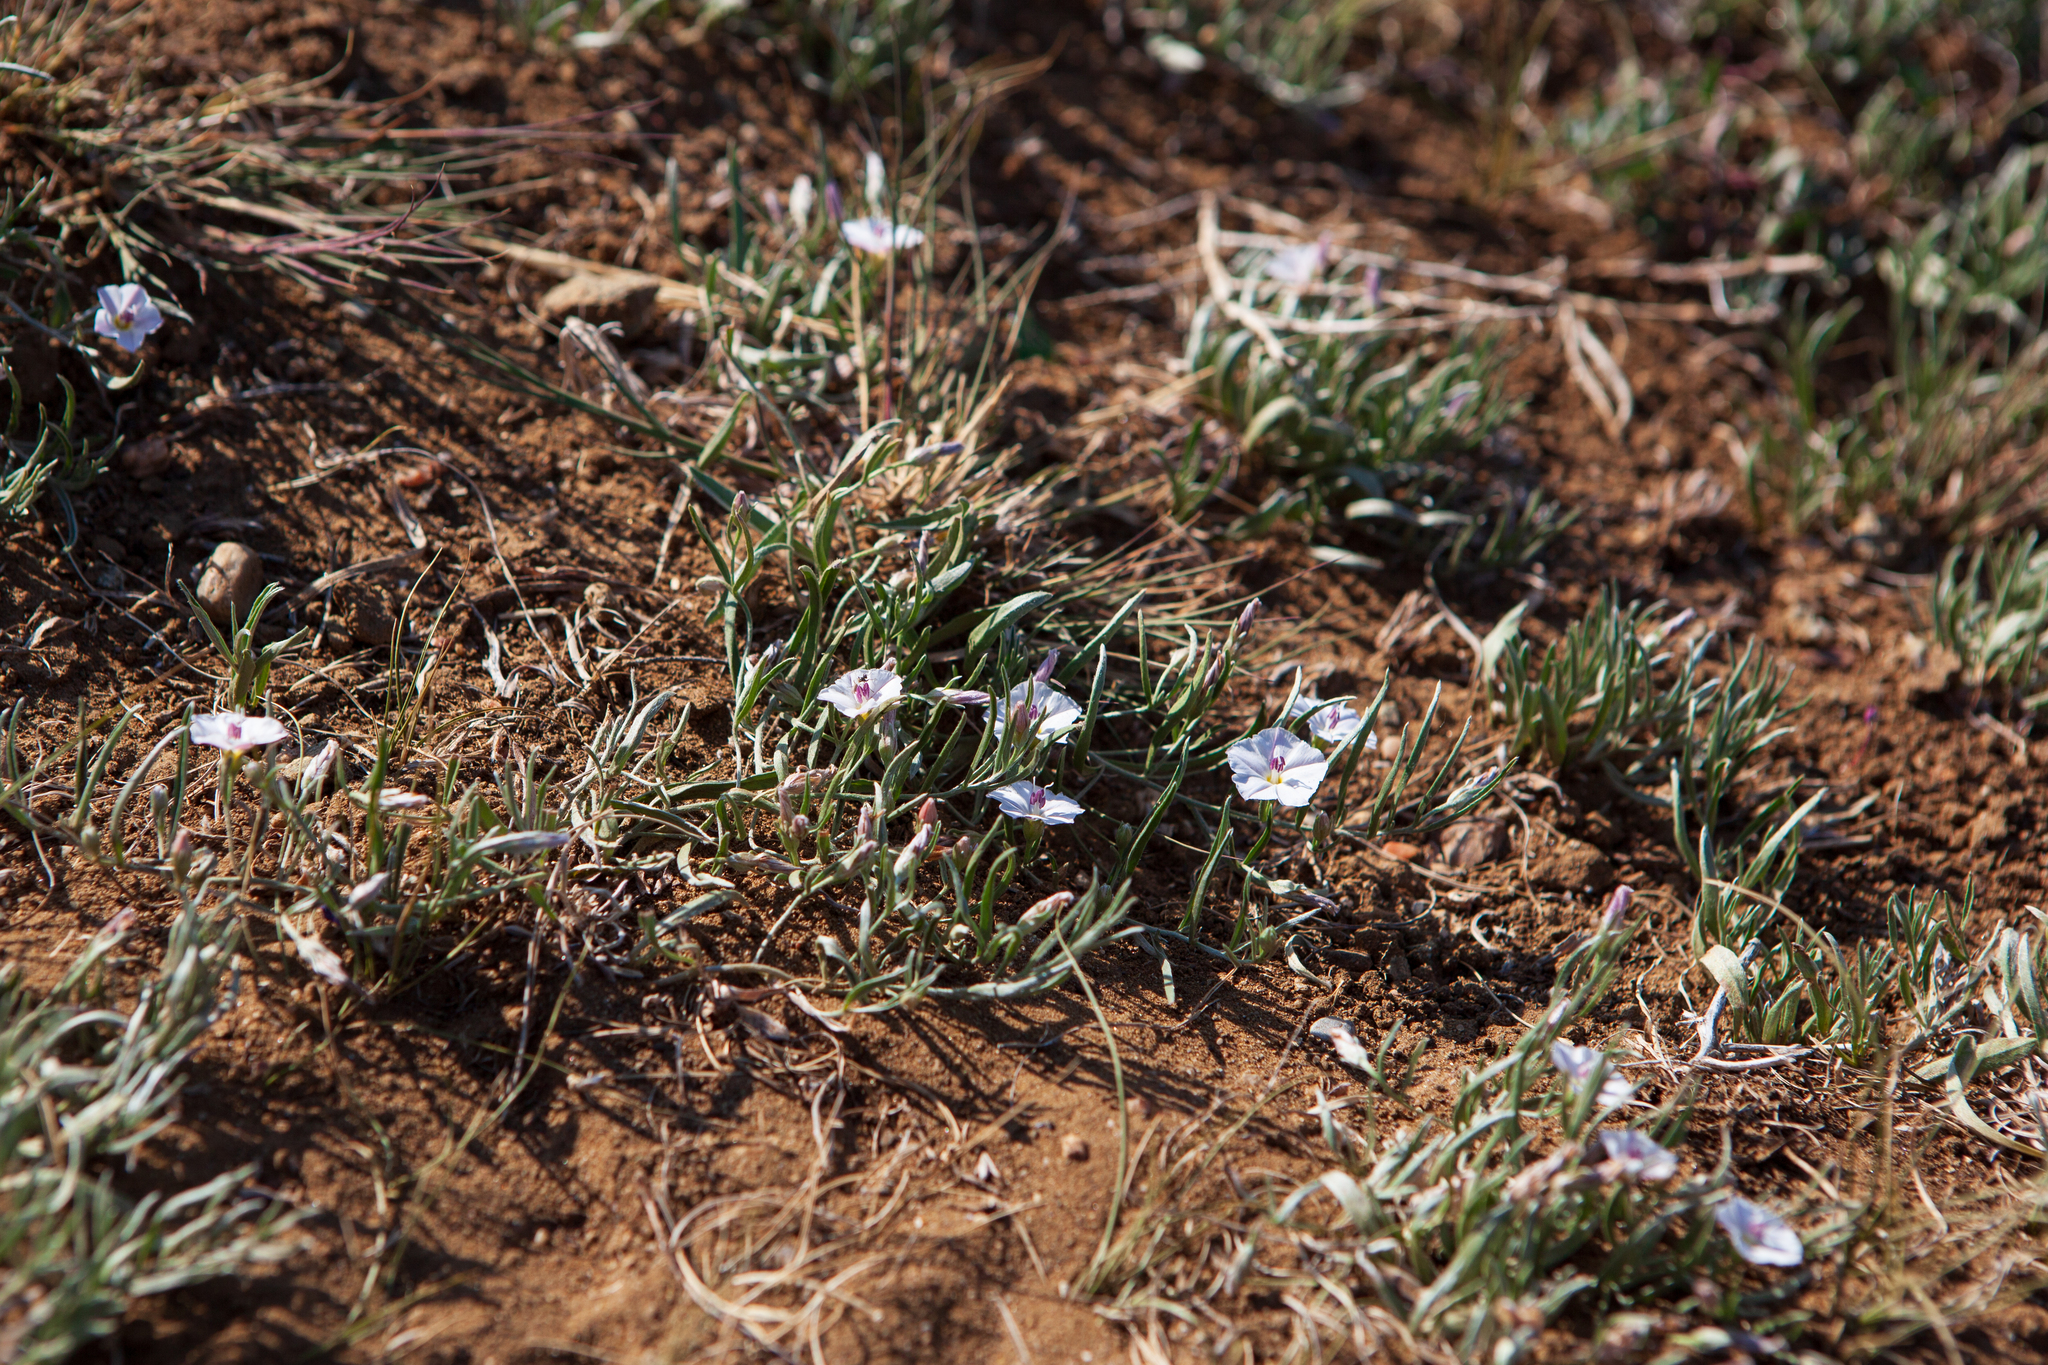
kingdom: Plantae
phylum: Tracheophyta
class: Magnoliopsida
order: Solanales
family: Convolvulaceae
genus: Convolvulus
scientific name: Convolvulus ammannii
